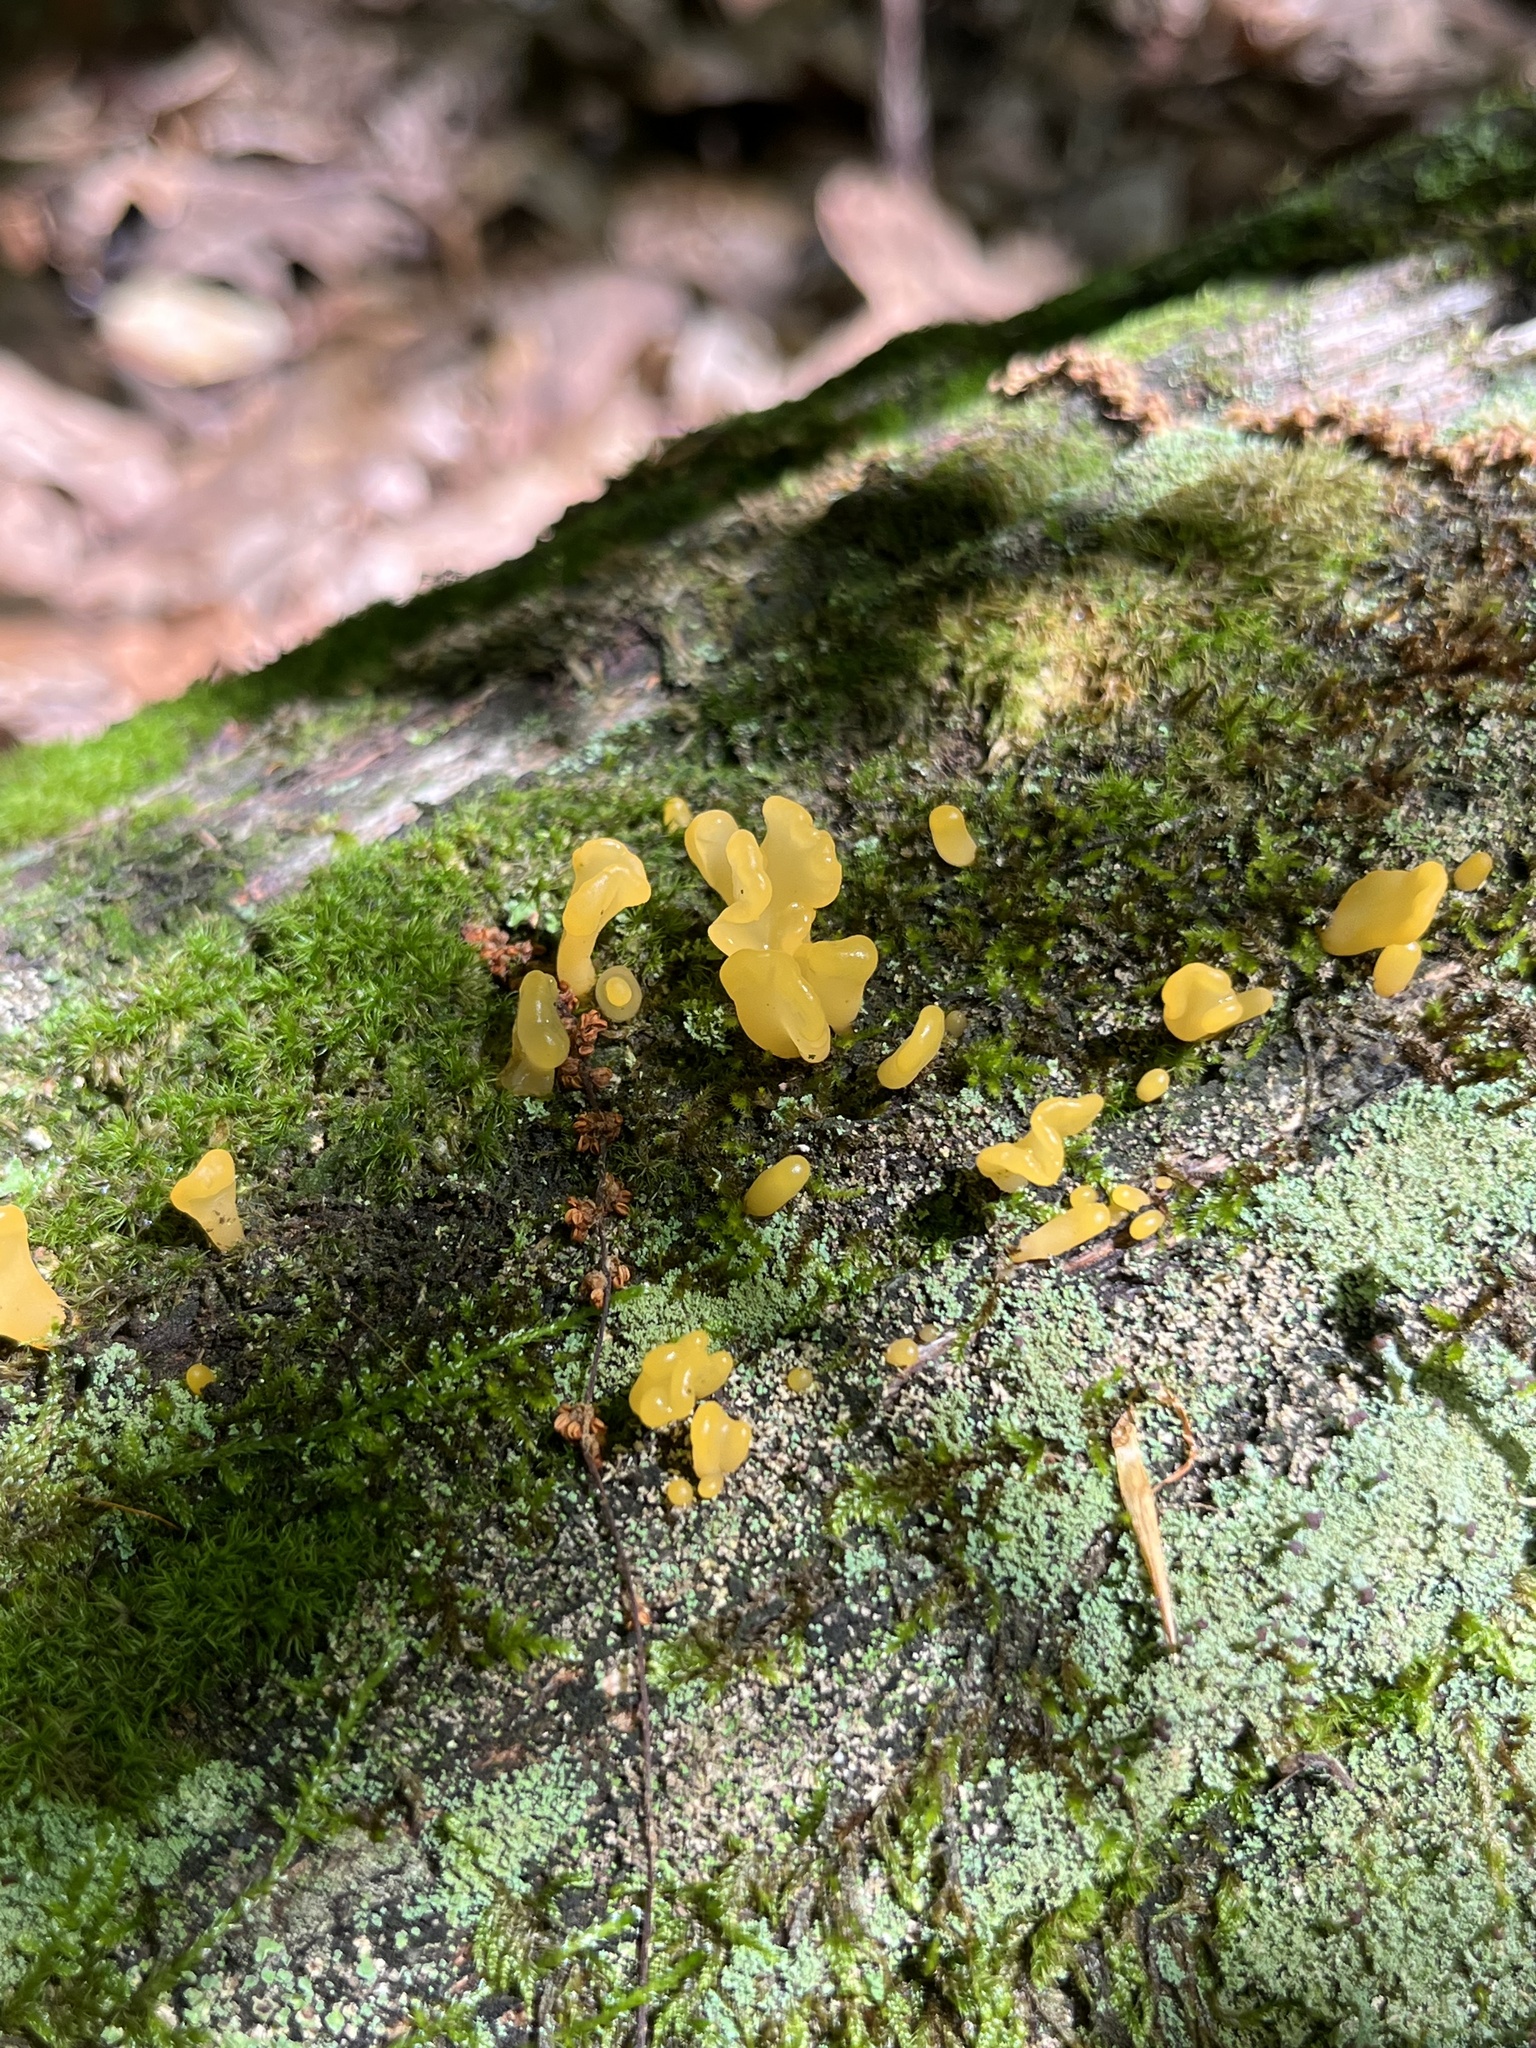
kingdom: Fungi
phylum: Basidiomycota
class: Dacrymycetes
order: Dacrymycetales
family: Dacrymycetaceae
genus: Dacrymyces
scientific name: Dacrymyces spathularius
